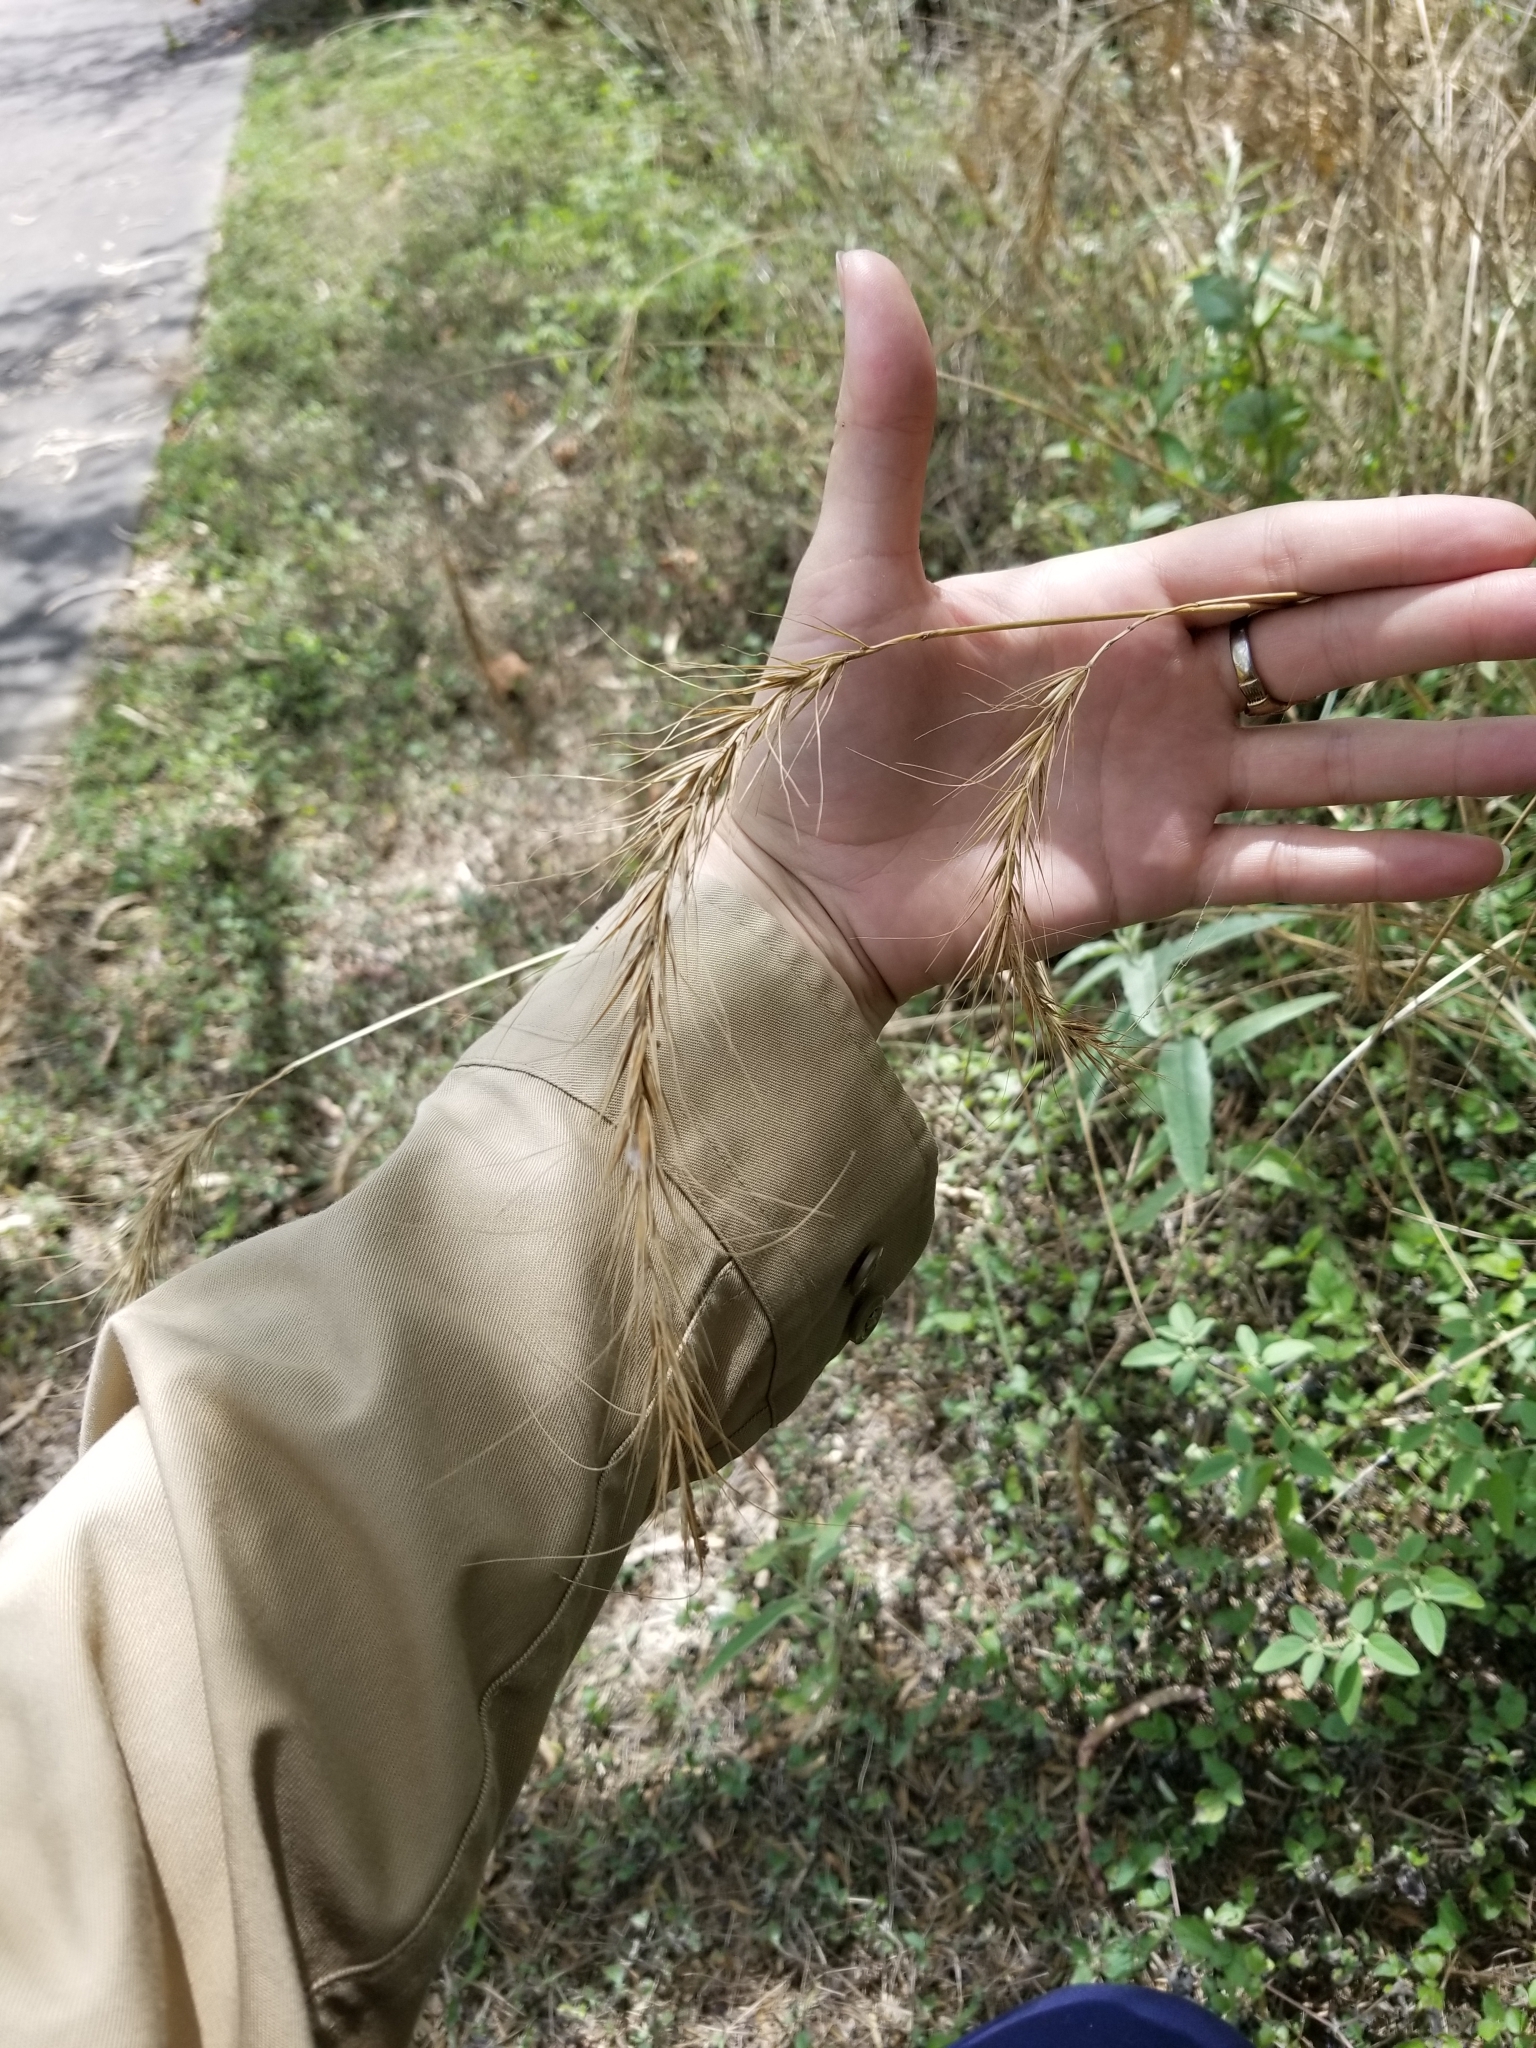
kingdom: Plantae
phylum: Tracheophyta
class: Liliopsida
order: Poales
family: Poaceae
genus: Elymus
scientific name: Elymus canadensis
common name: Canada wild rye
